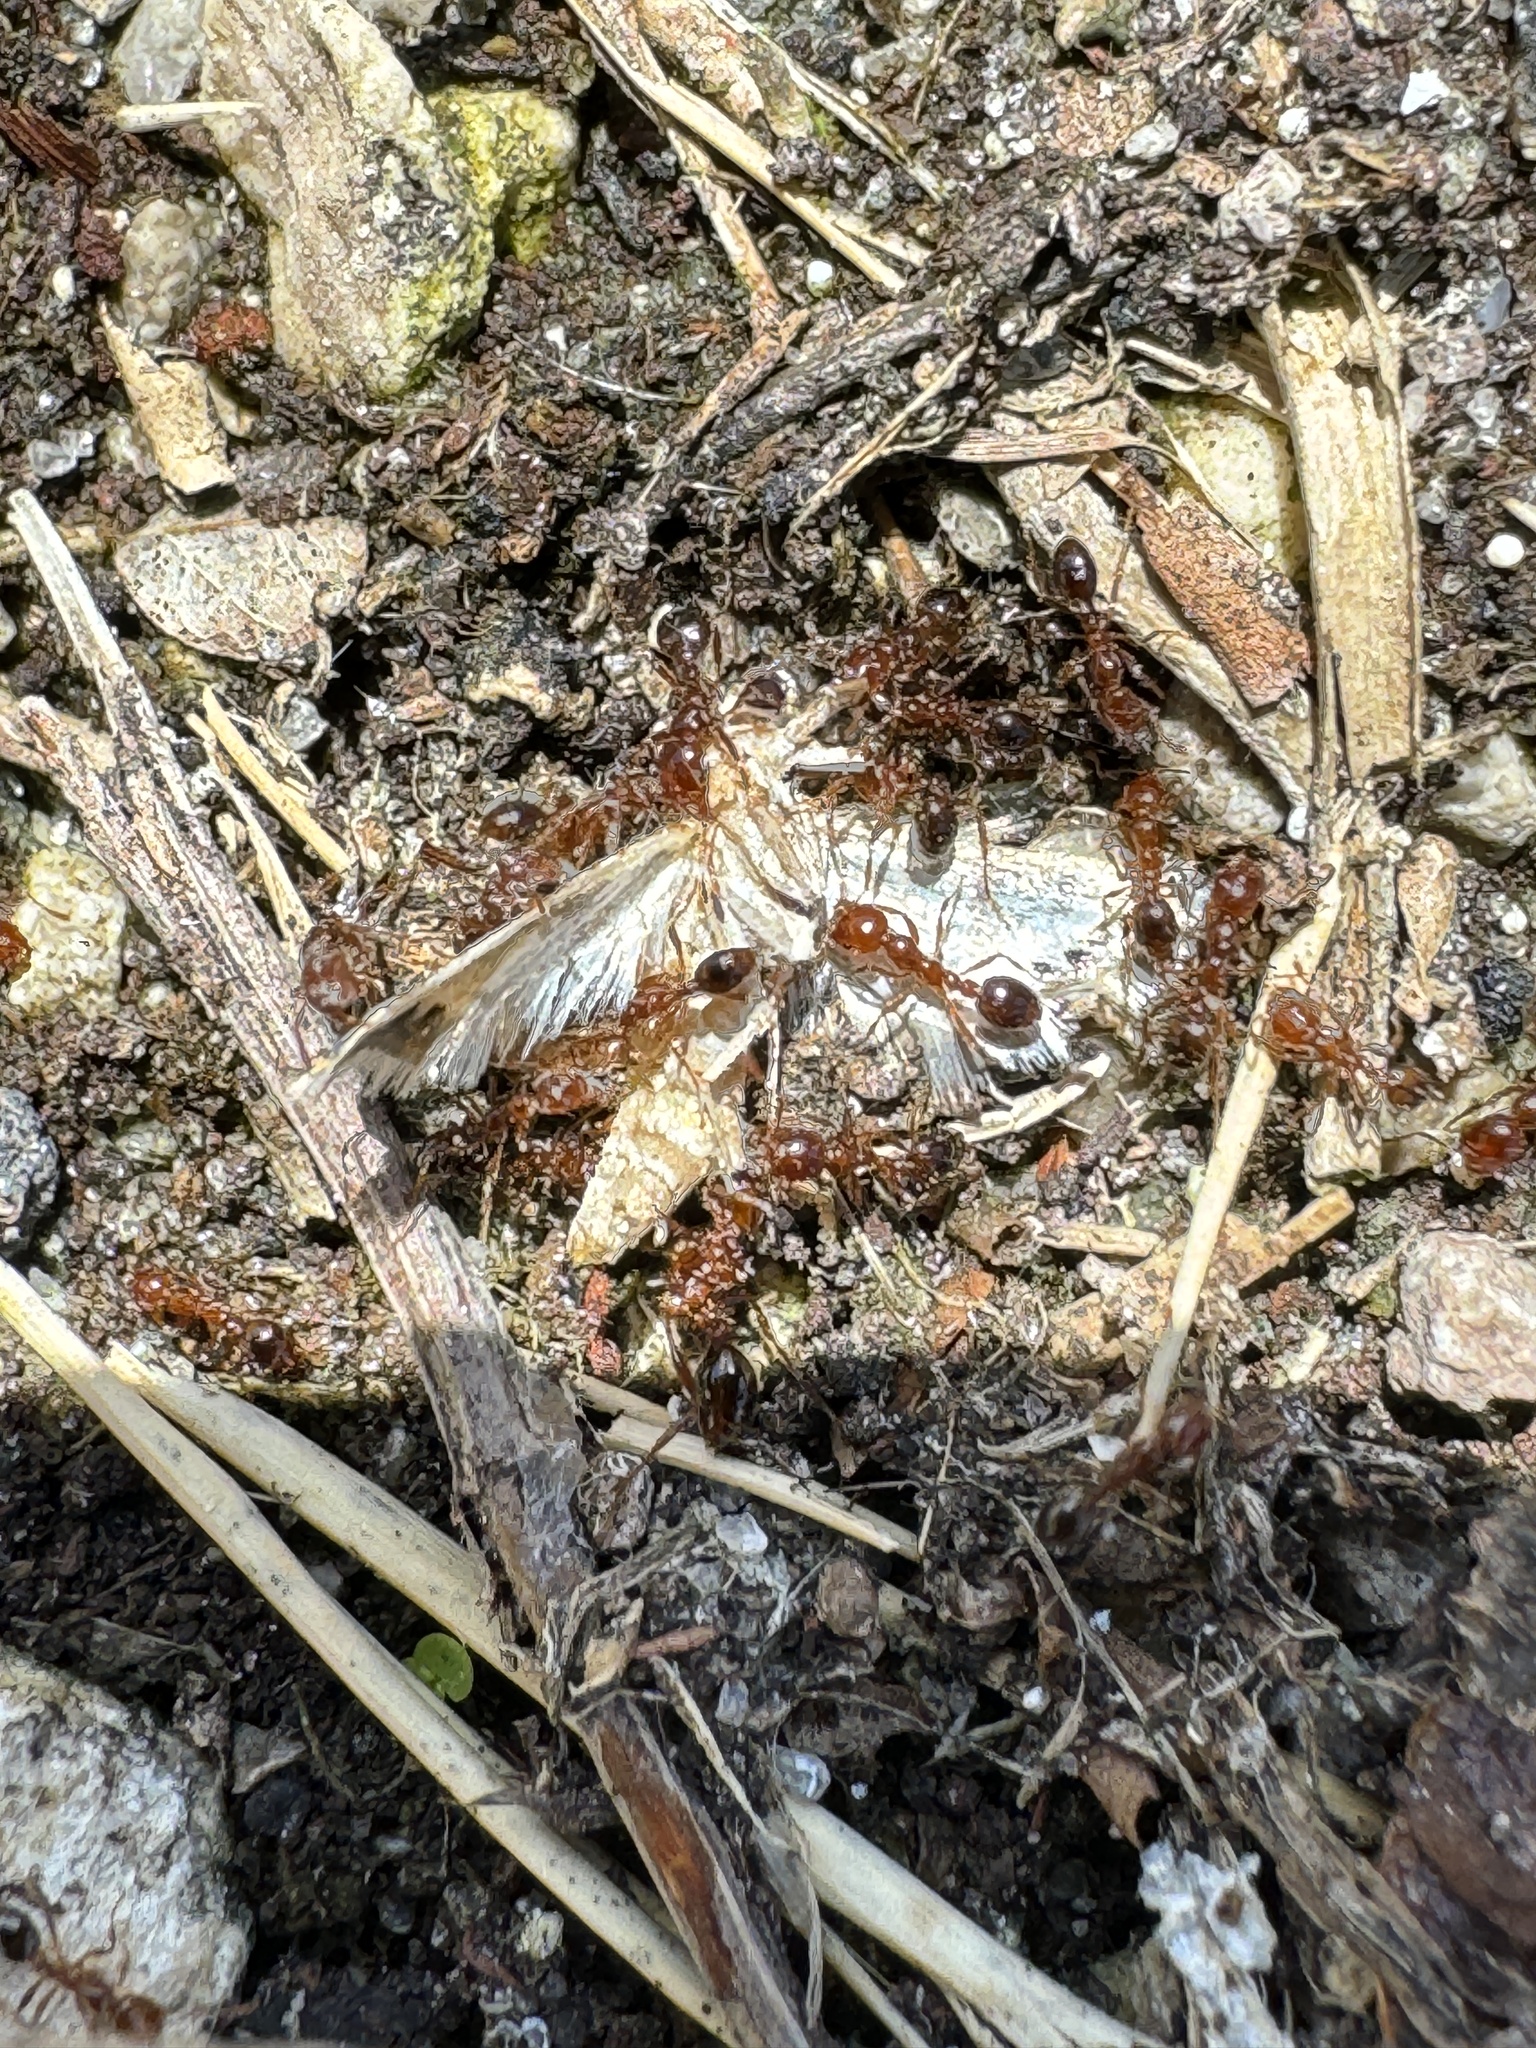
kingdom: Animalia
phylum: Arthropoda
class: Insecta
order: Hymenoptera
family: Formicidae
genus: Solenopsis
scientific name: Solenopsis invicta
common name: Red imported fire ant
